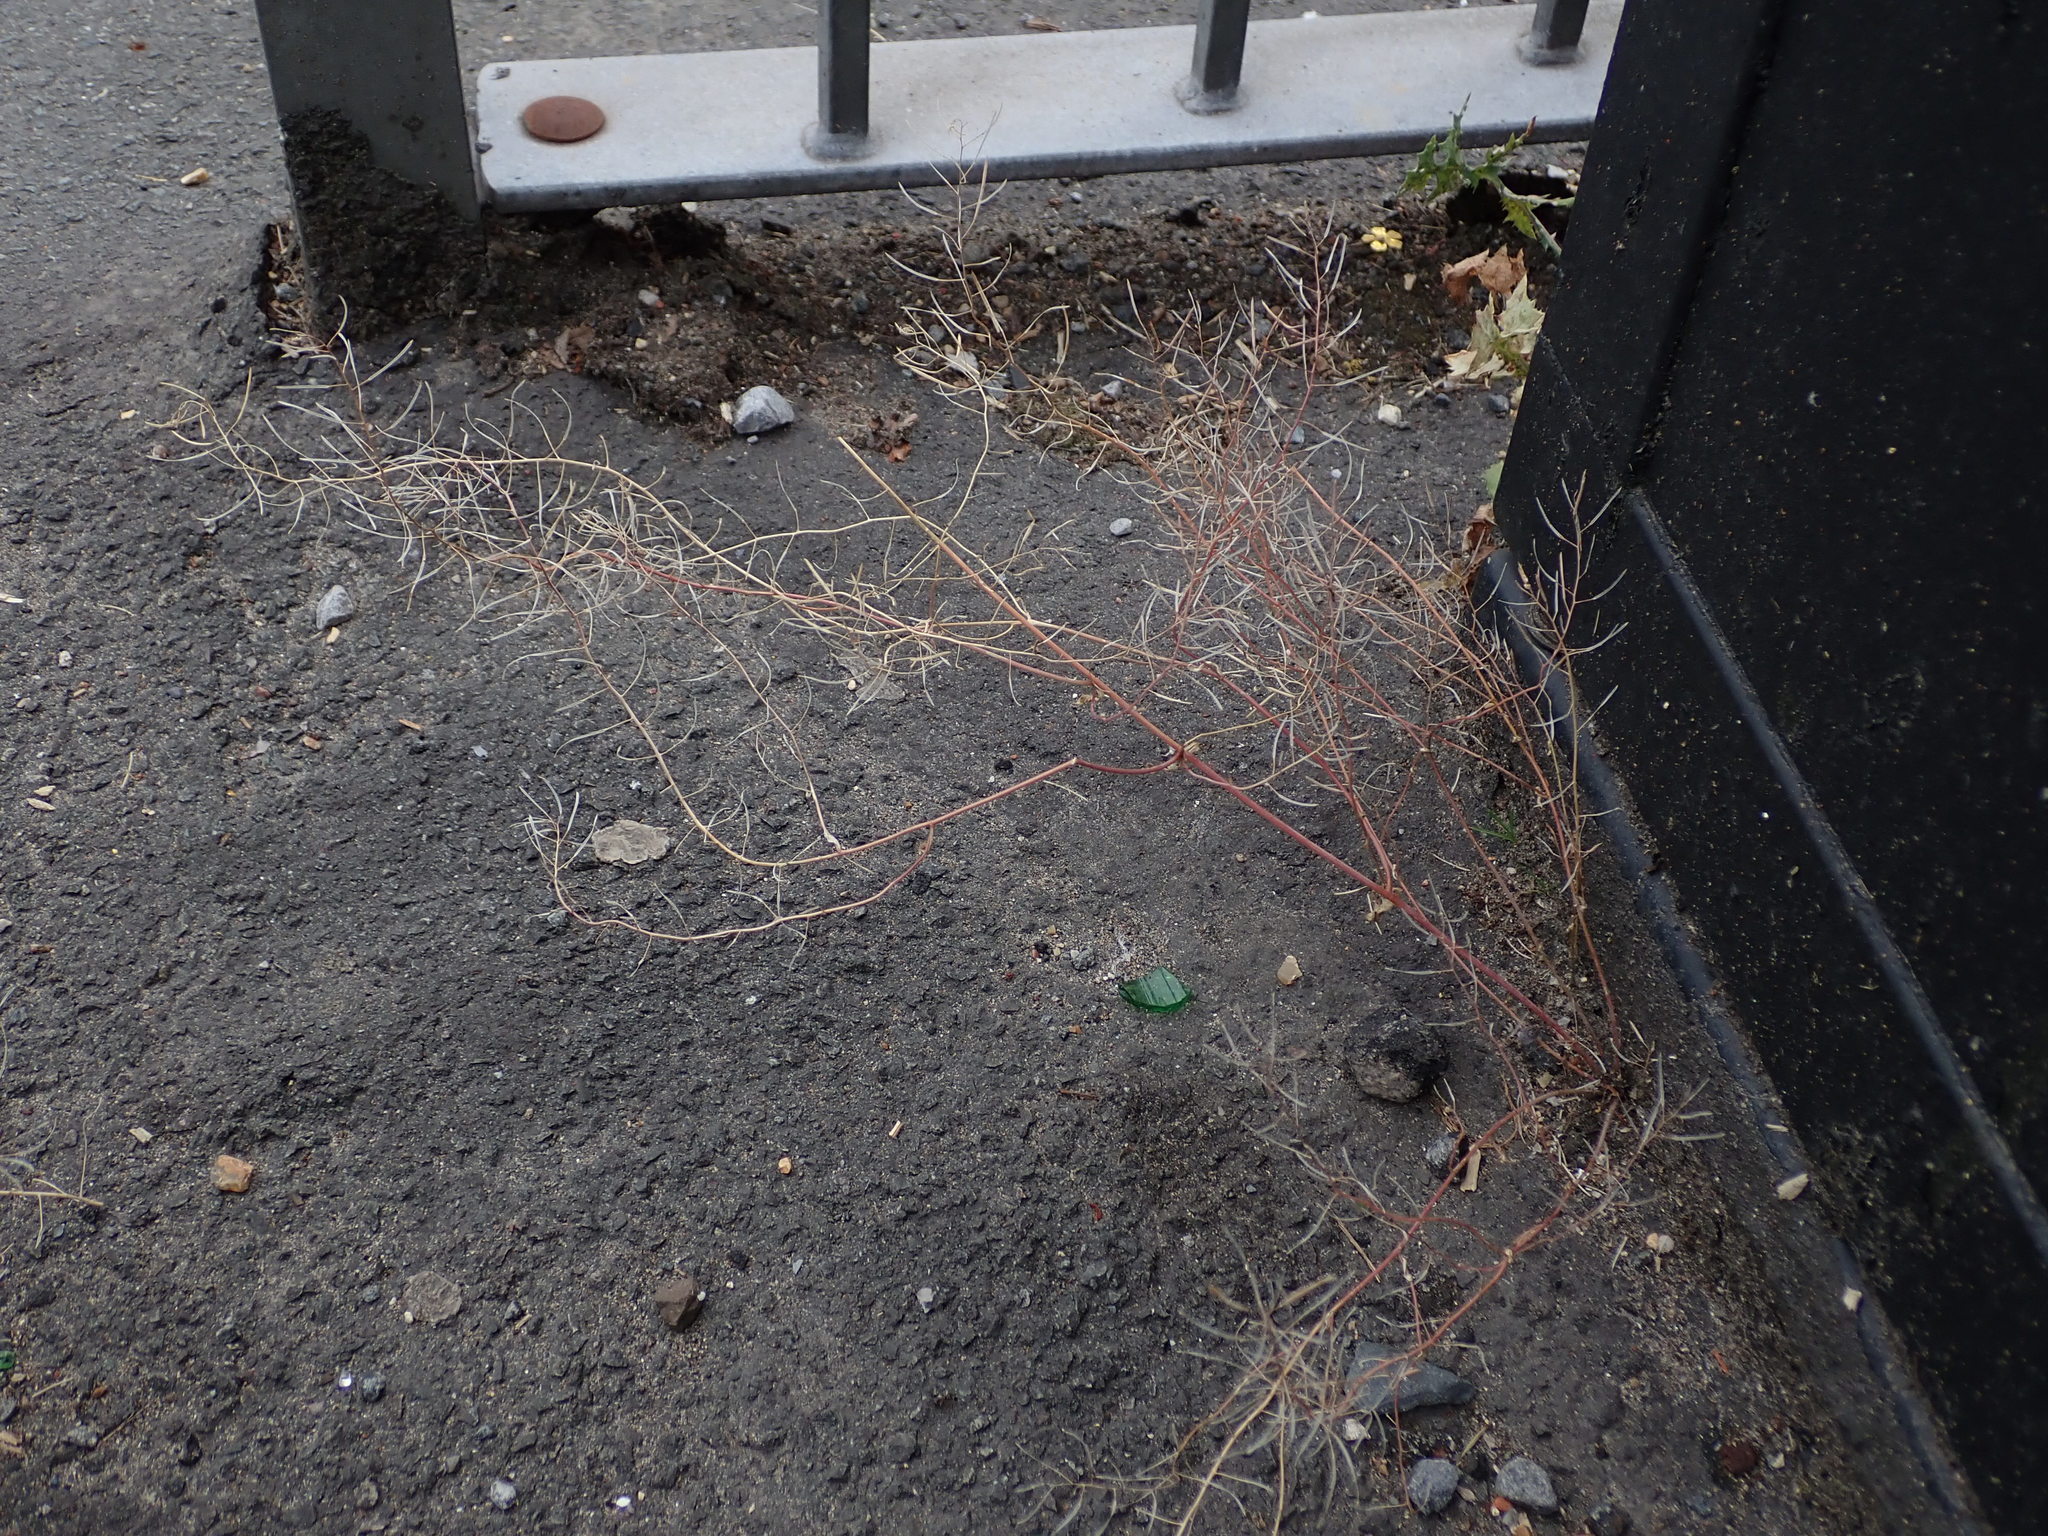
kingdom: Plantae
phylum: Tracheophyta
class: Magnoliopsida
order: Brassicales
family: Brassicaceae
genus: Arabidopsis
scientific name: Arabidopsis thaliana
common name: Thale cress
